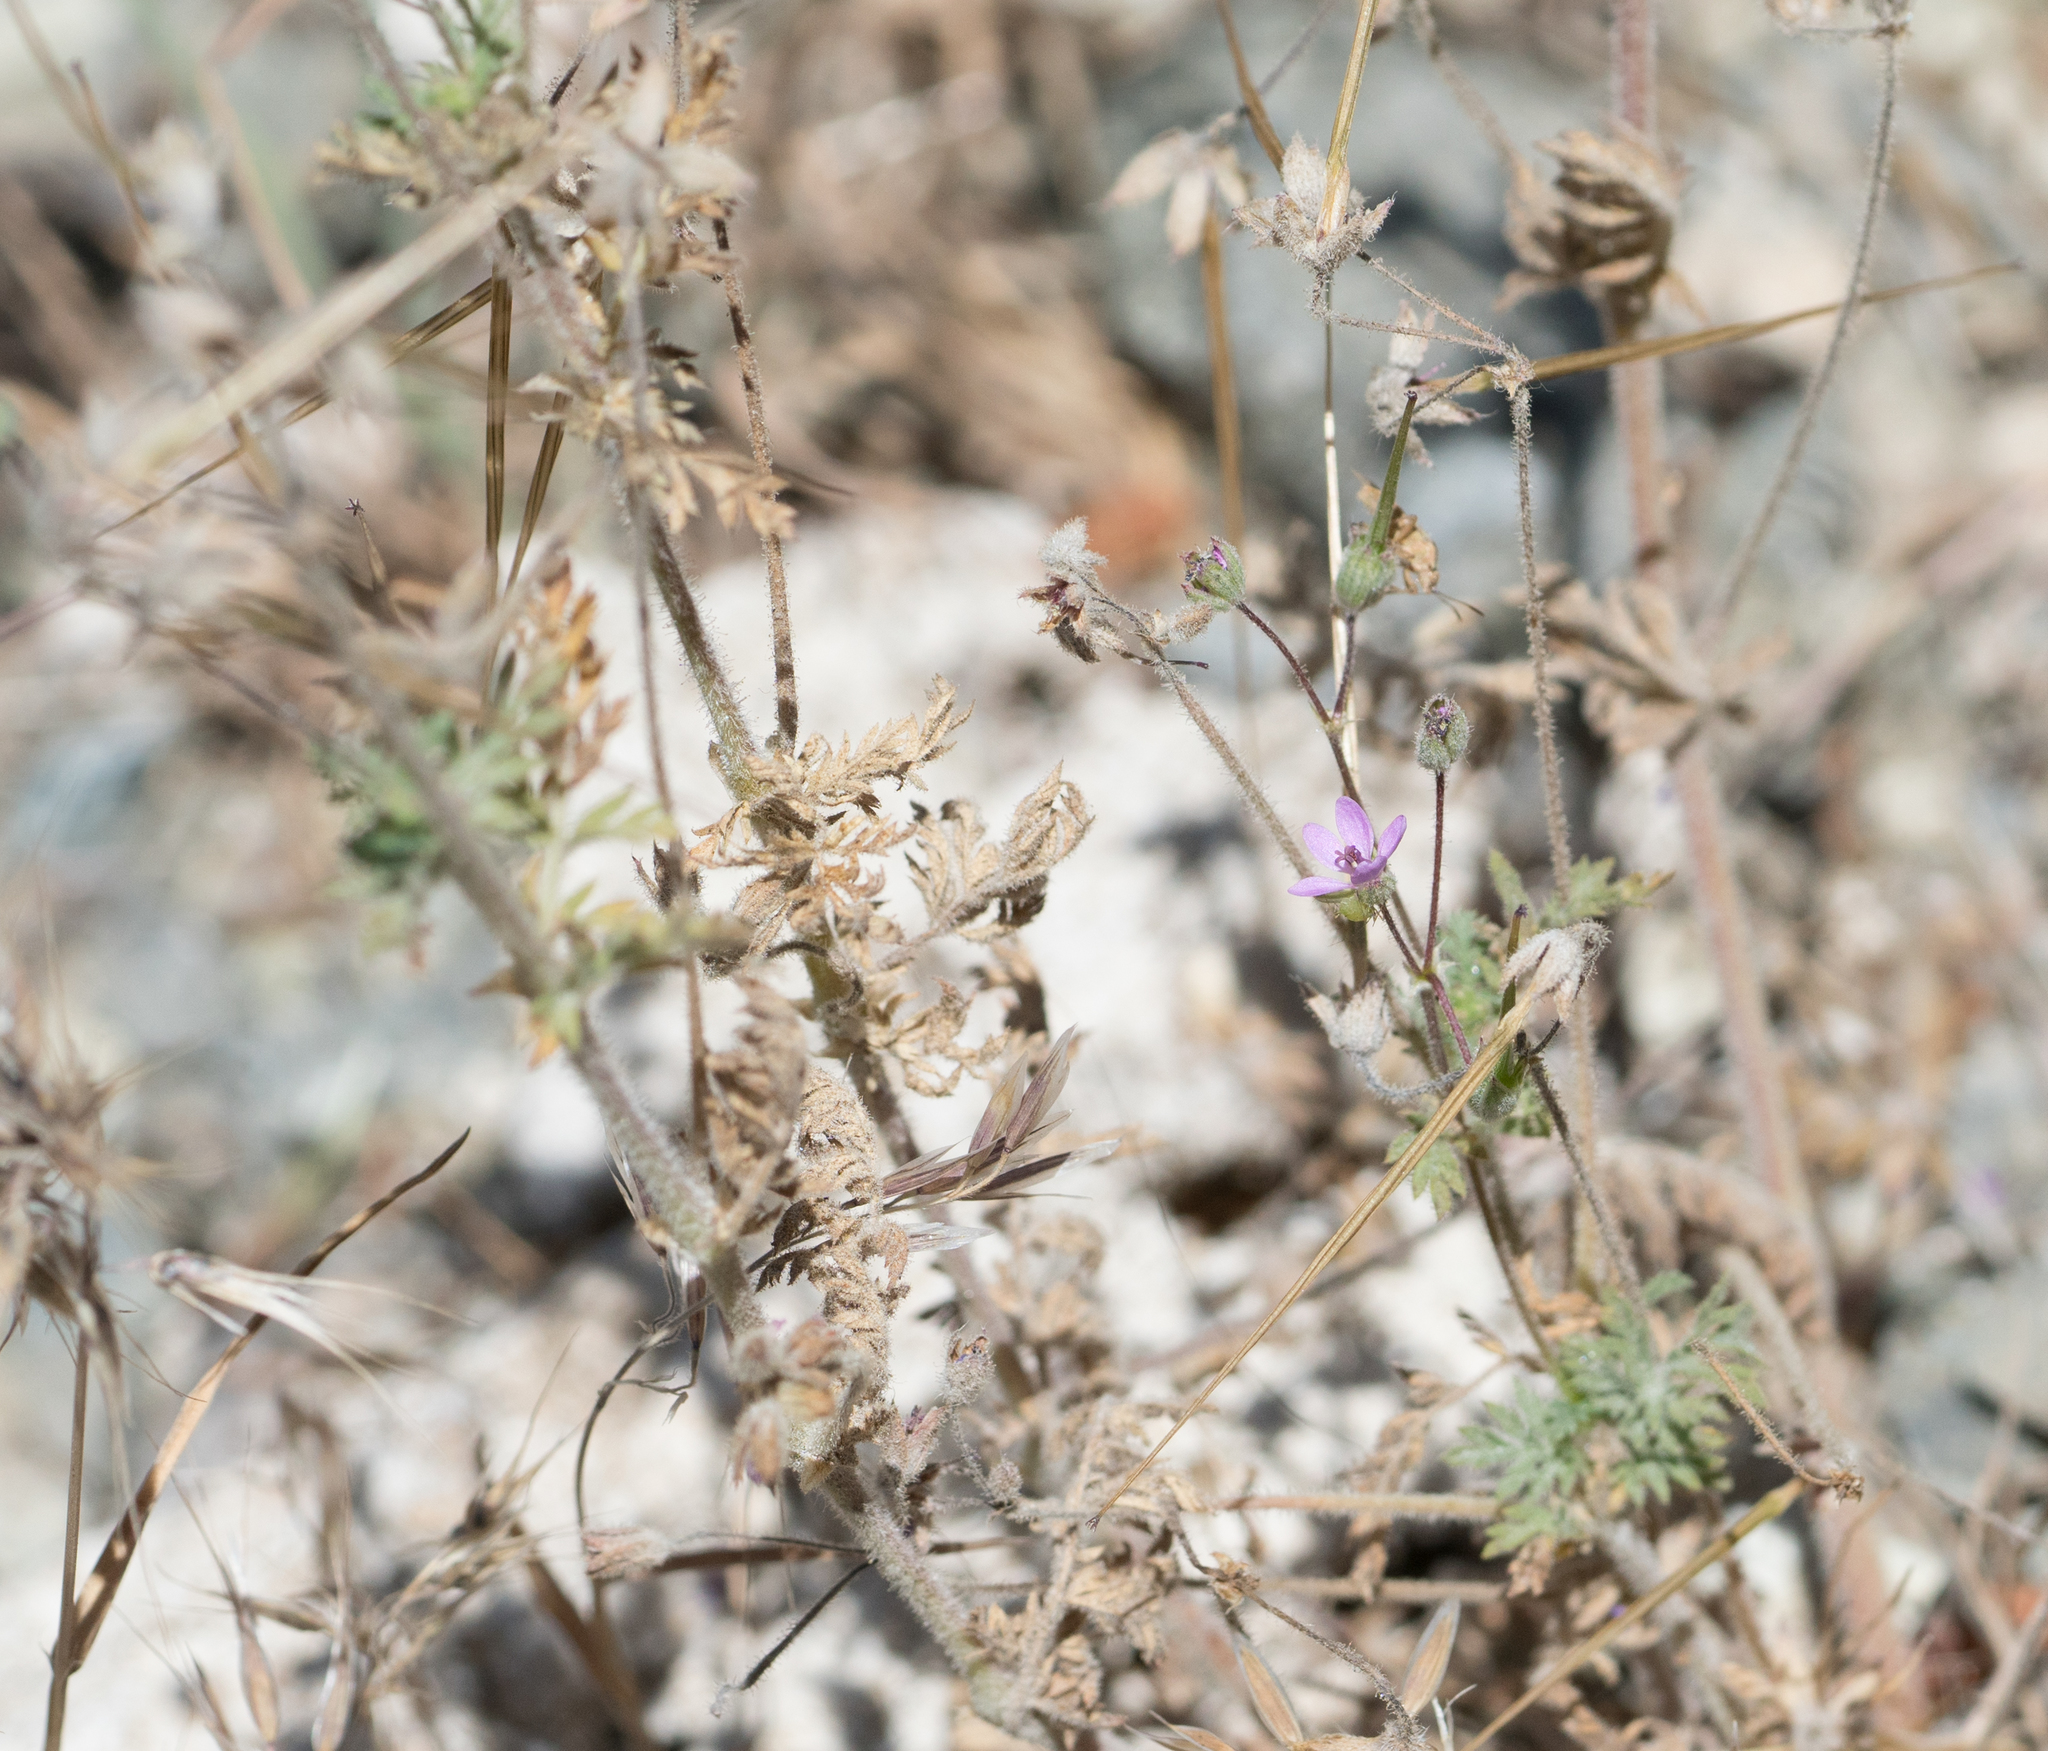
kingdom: Plantae
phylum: Tracheophyta
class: Magnoliopsida
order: Geraniales
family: Geraniaceae
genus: Erodium
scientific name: Erodium cicutarium
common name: Common stork's-bill
